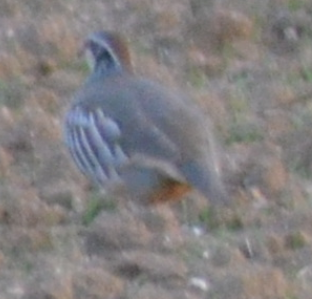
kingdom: Animalia
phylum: Chordata
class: Aves
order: Galliformes
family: Phasianidae
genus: Alectoris
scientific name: Alectoris rufa
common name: Red-legged partridge
